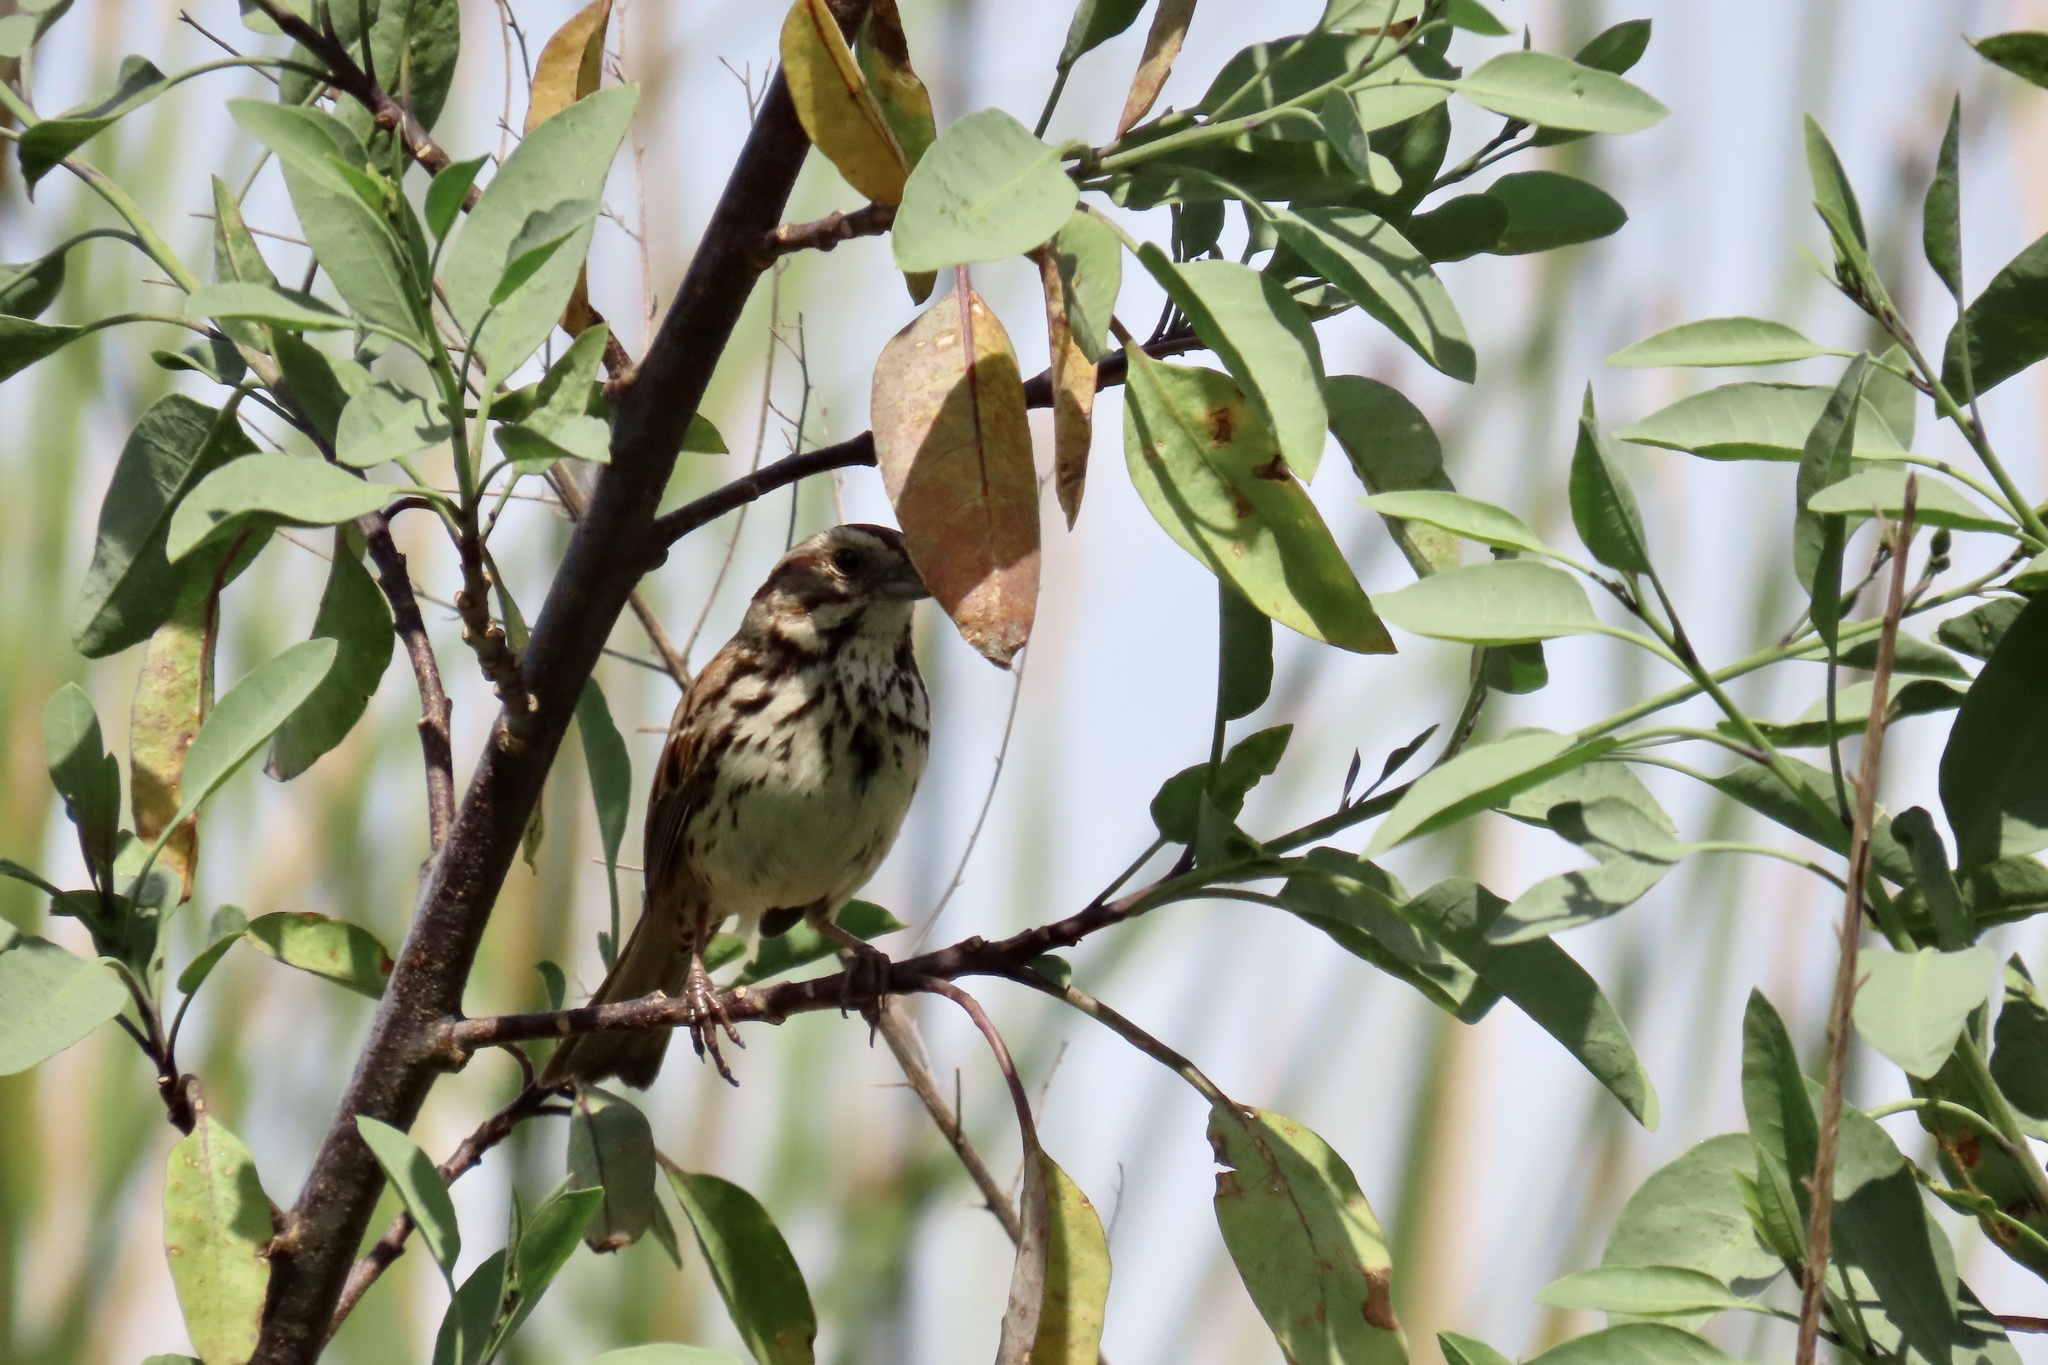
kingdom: Animalia
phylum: Chordata
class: Aves
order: Passeriformes
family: Passerellidae
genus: Melospiza
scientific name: Melospiza melodia
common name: Song sparrow
